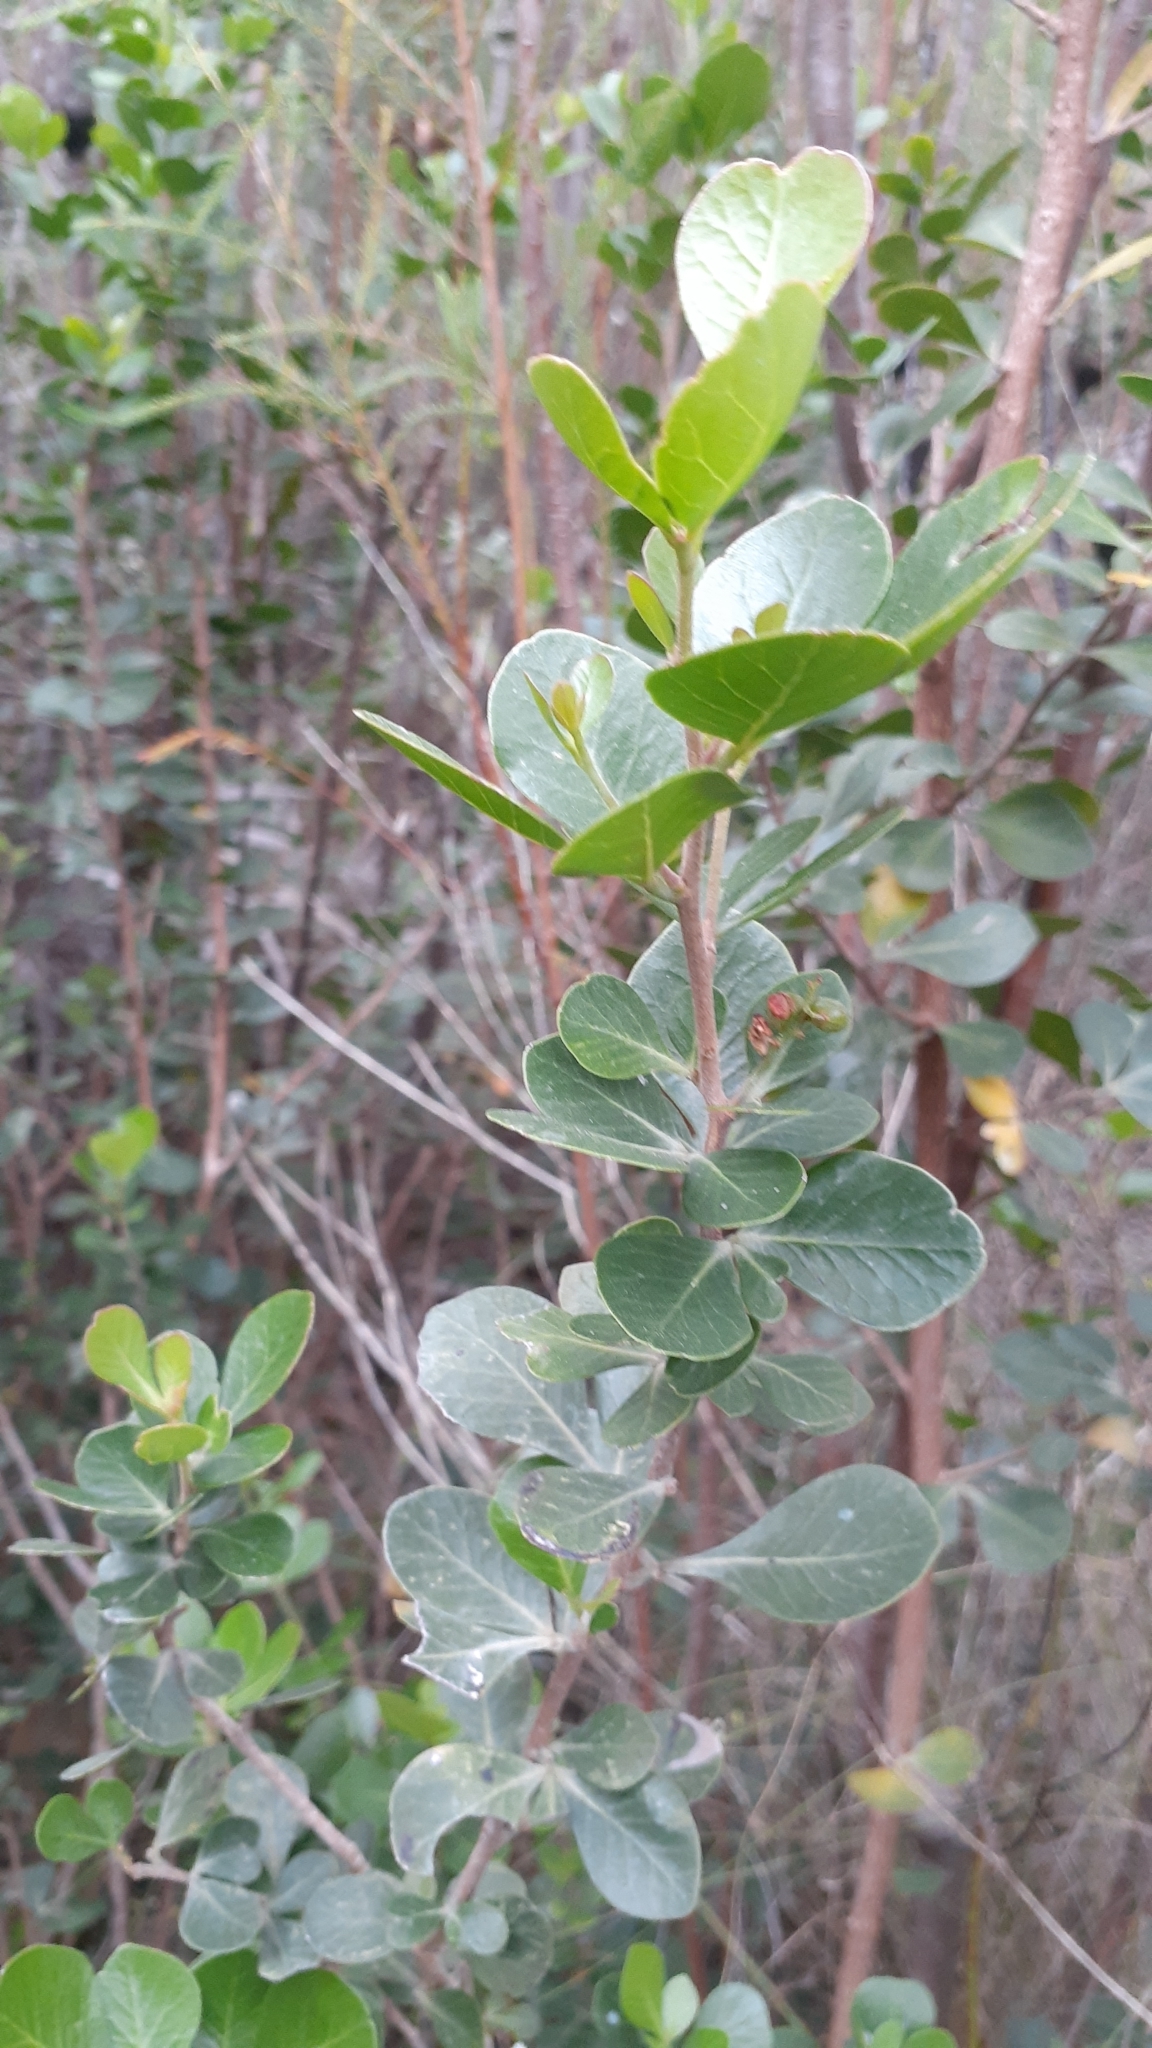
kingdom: Plantae
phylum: Tracheophyta
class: Magnoliopsida
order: Sapindales
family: Anacardiaceae
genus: Searsia
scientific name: Searsia lucida
